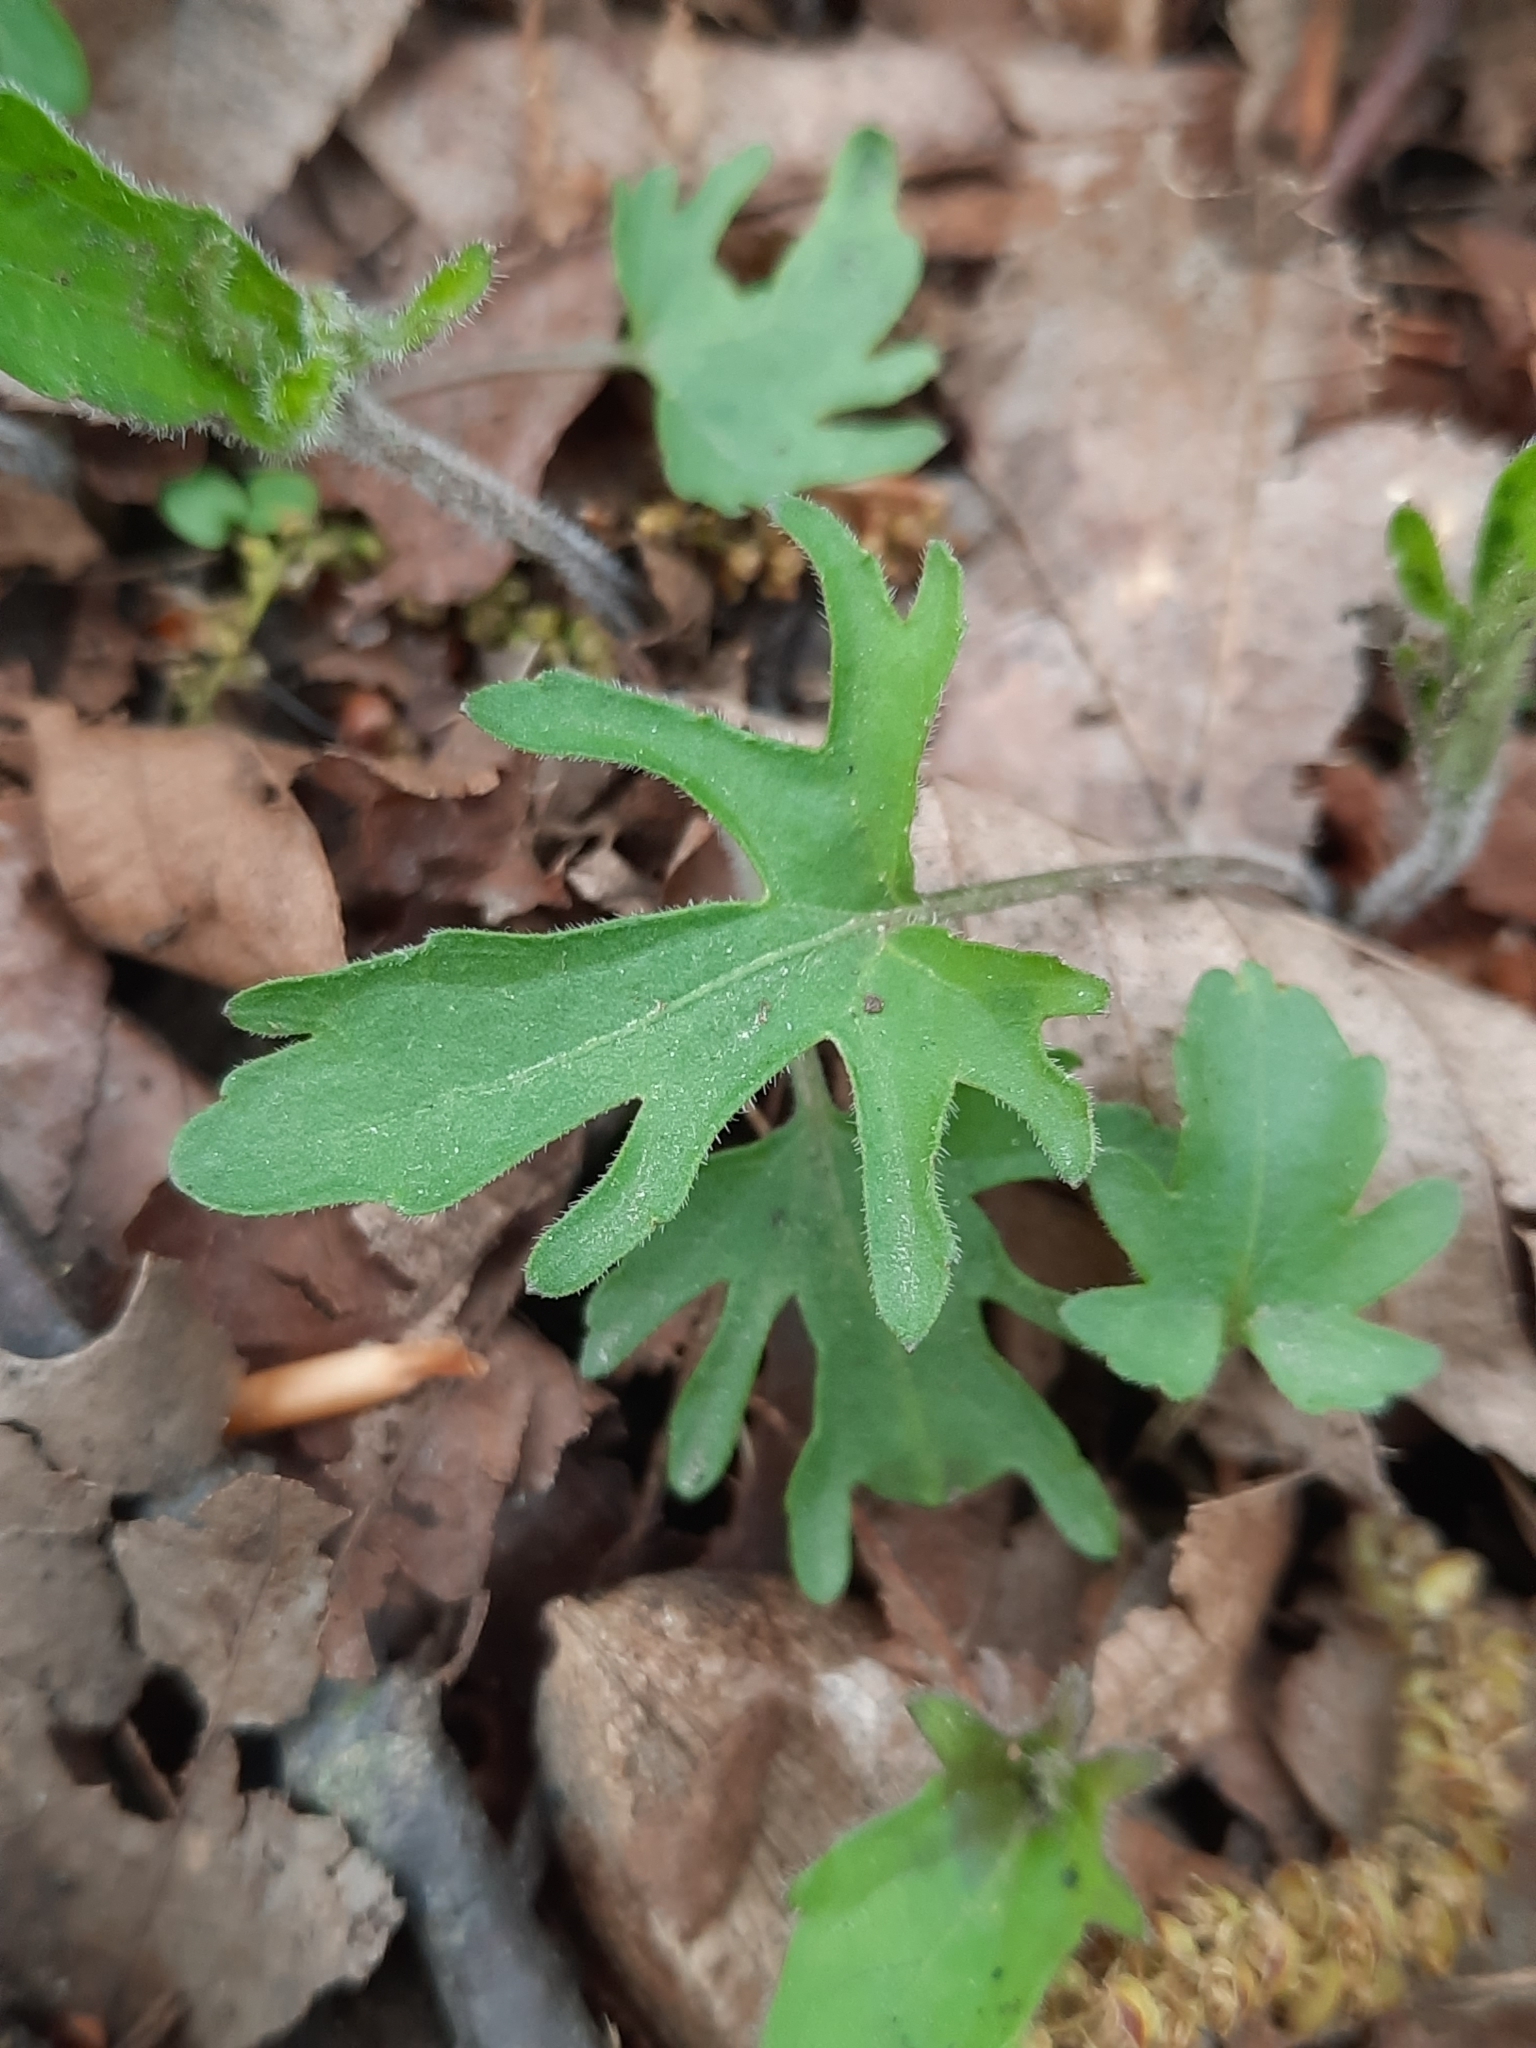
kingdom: Plantae
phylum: Tracheophyta
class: Magnoliopsida
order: Malpighiales
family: Violaceae
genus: Viola
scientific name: Viola palmata
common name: Early blue violet
